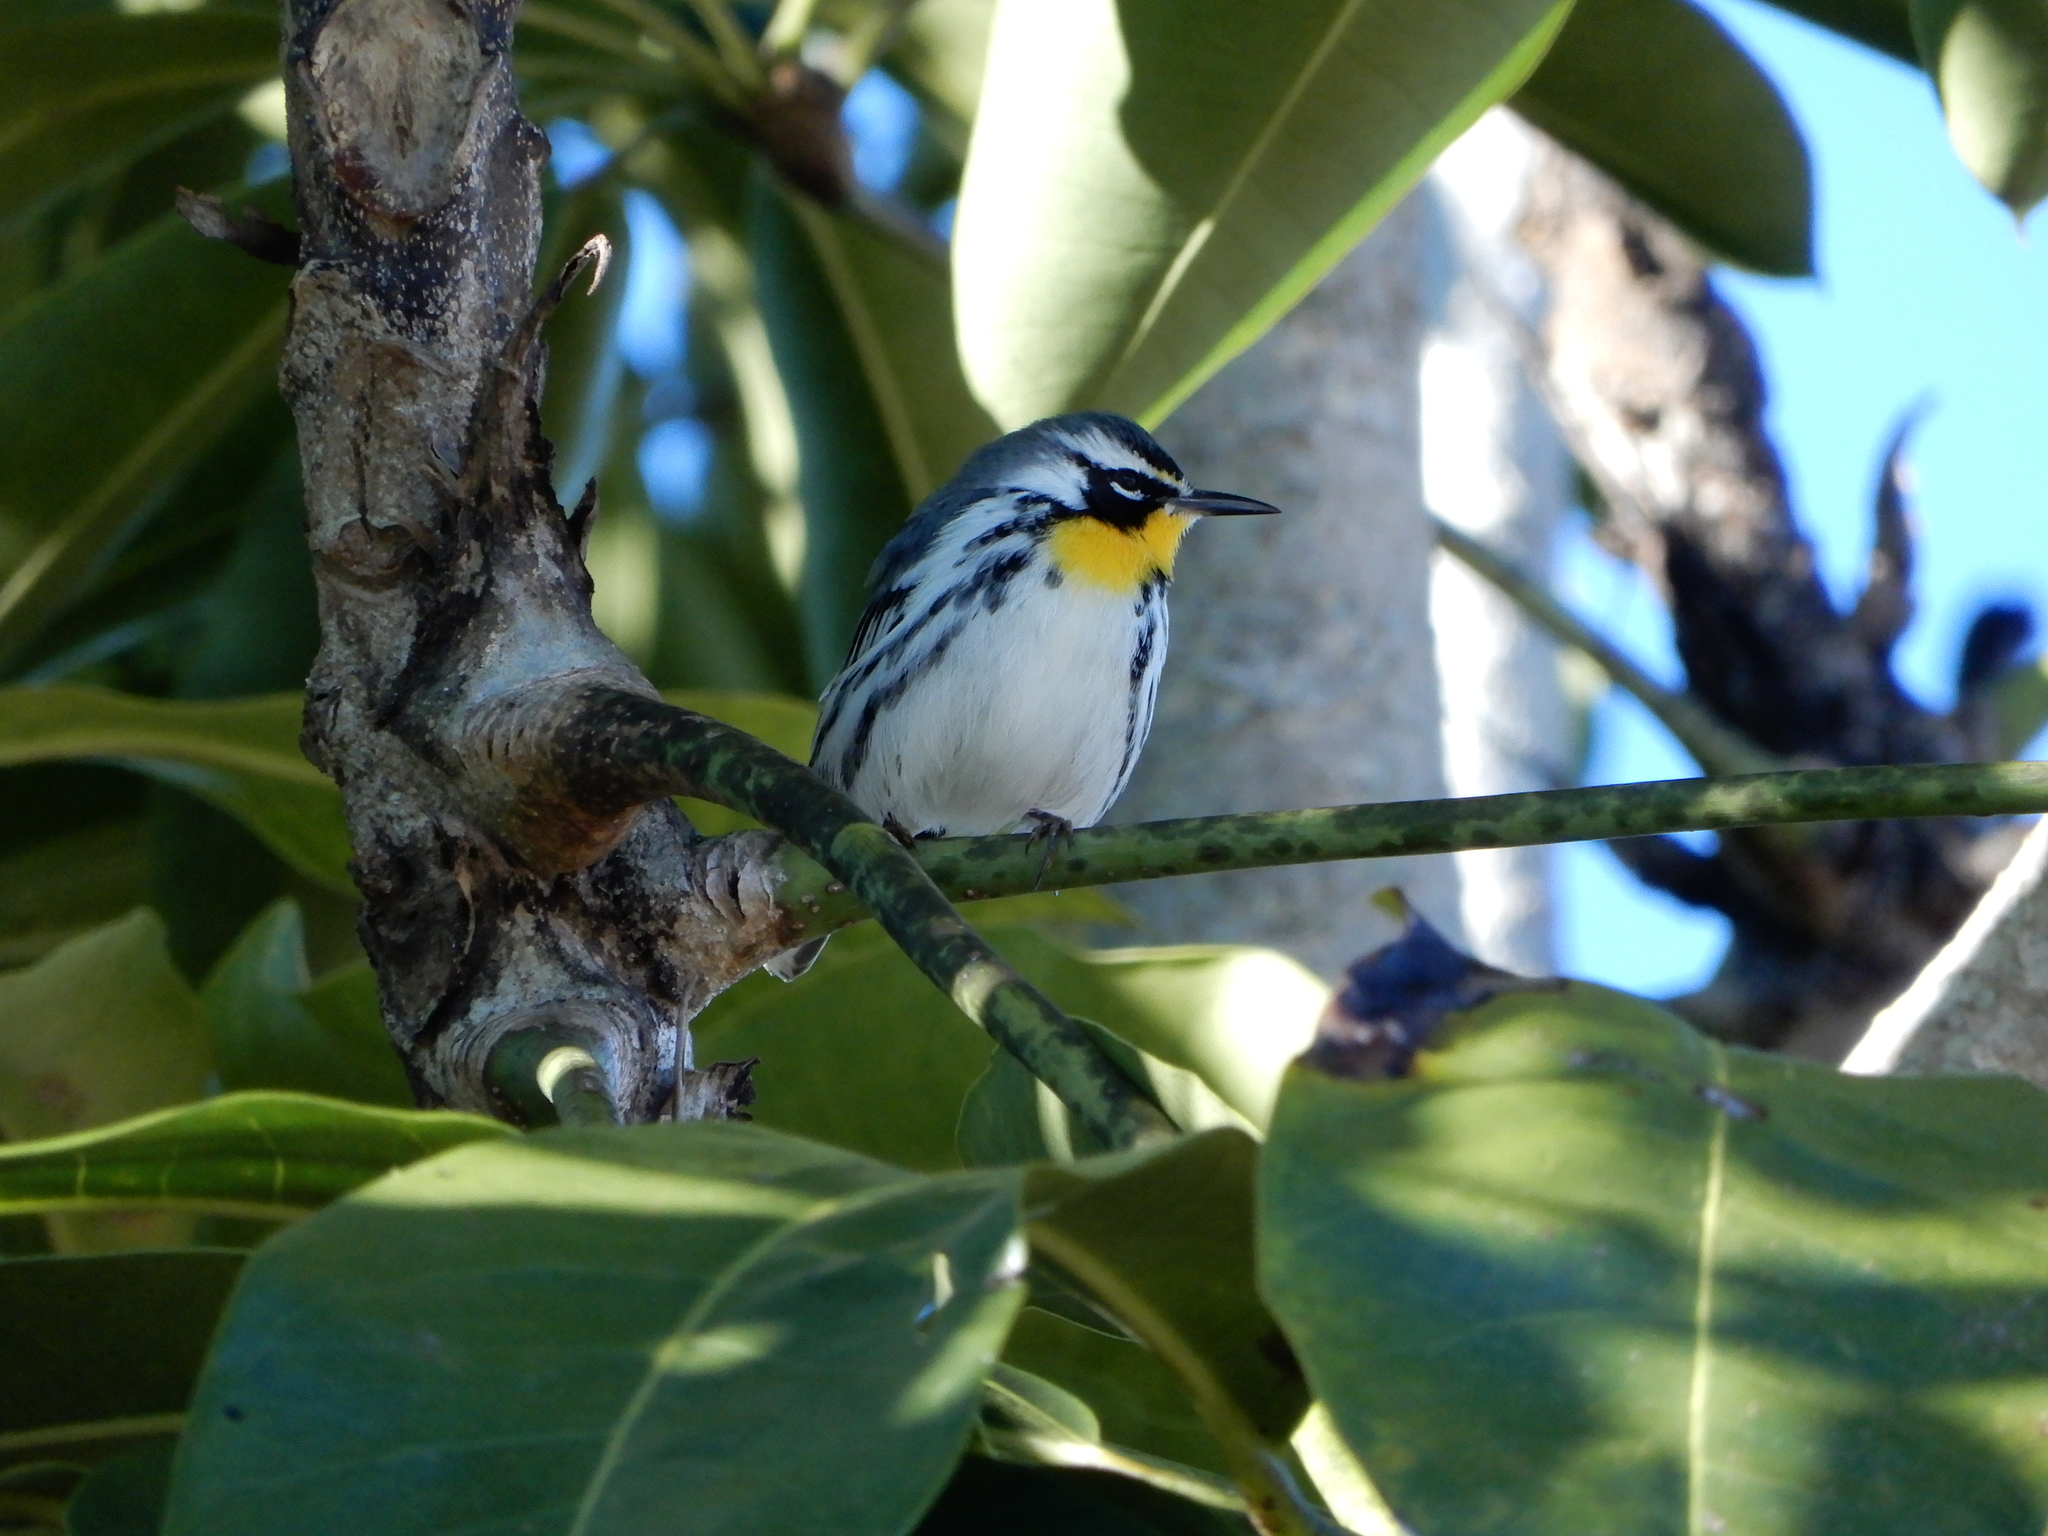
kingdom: Animalia
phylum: Chordata
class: Aves
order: Passeriformes
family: Parulidae
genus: Setophaga
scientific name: Setophaga dominica
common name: Yellow-throated warbler
